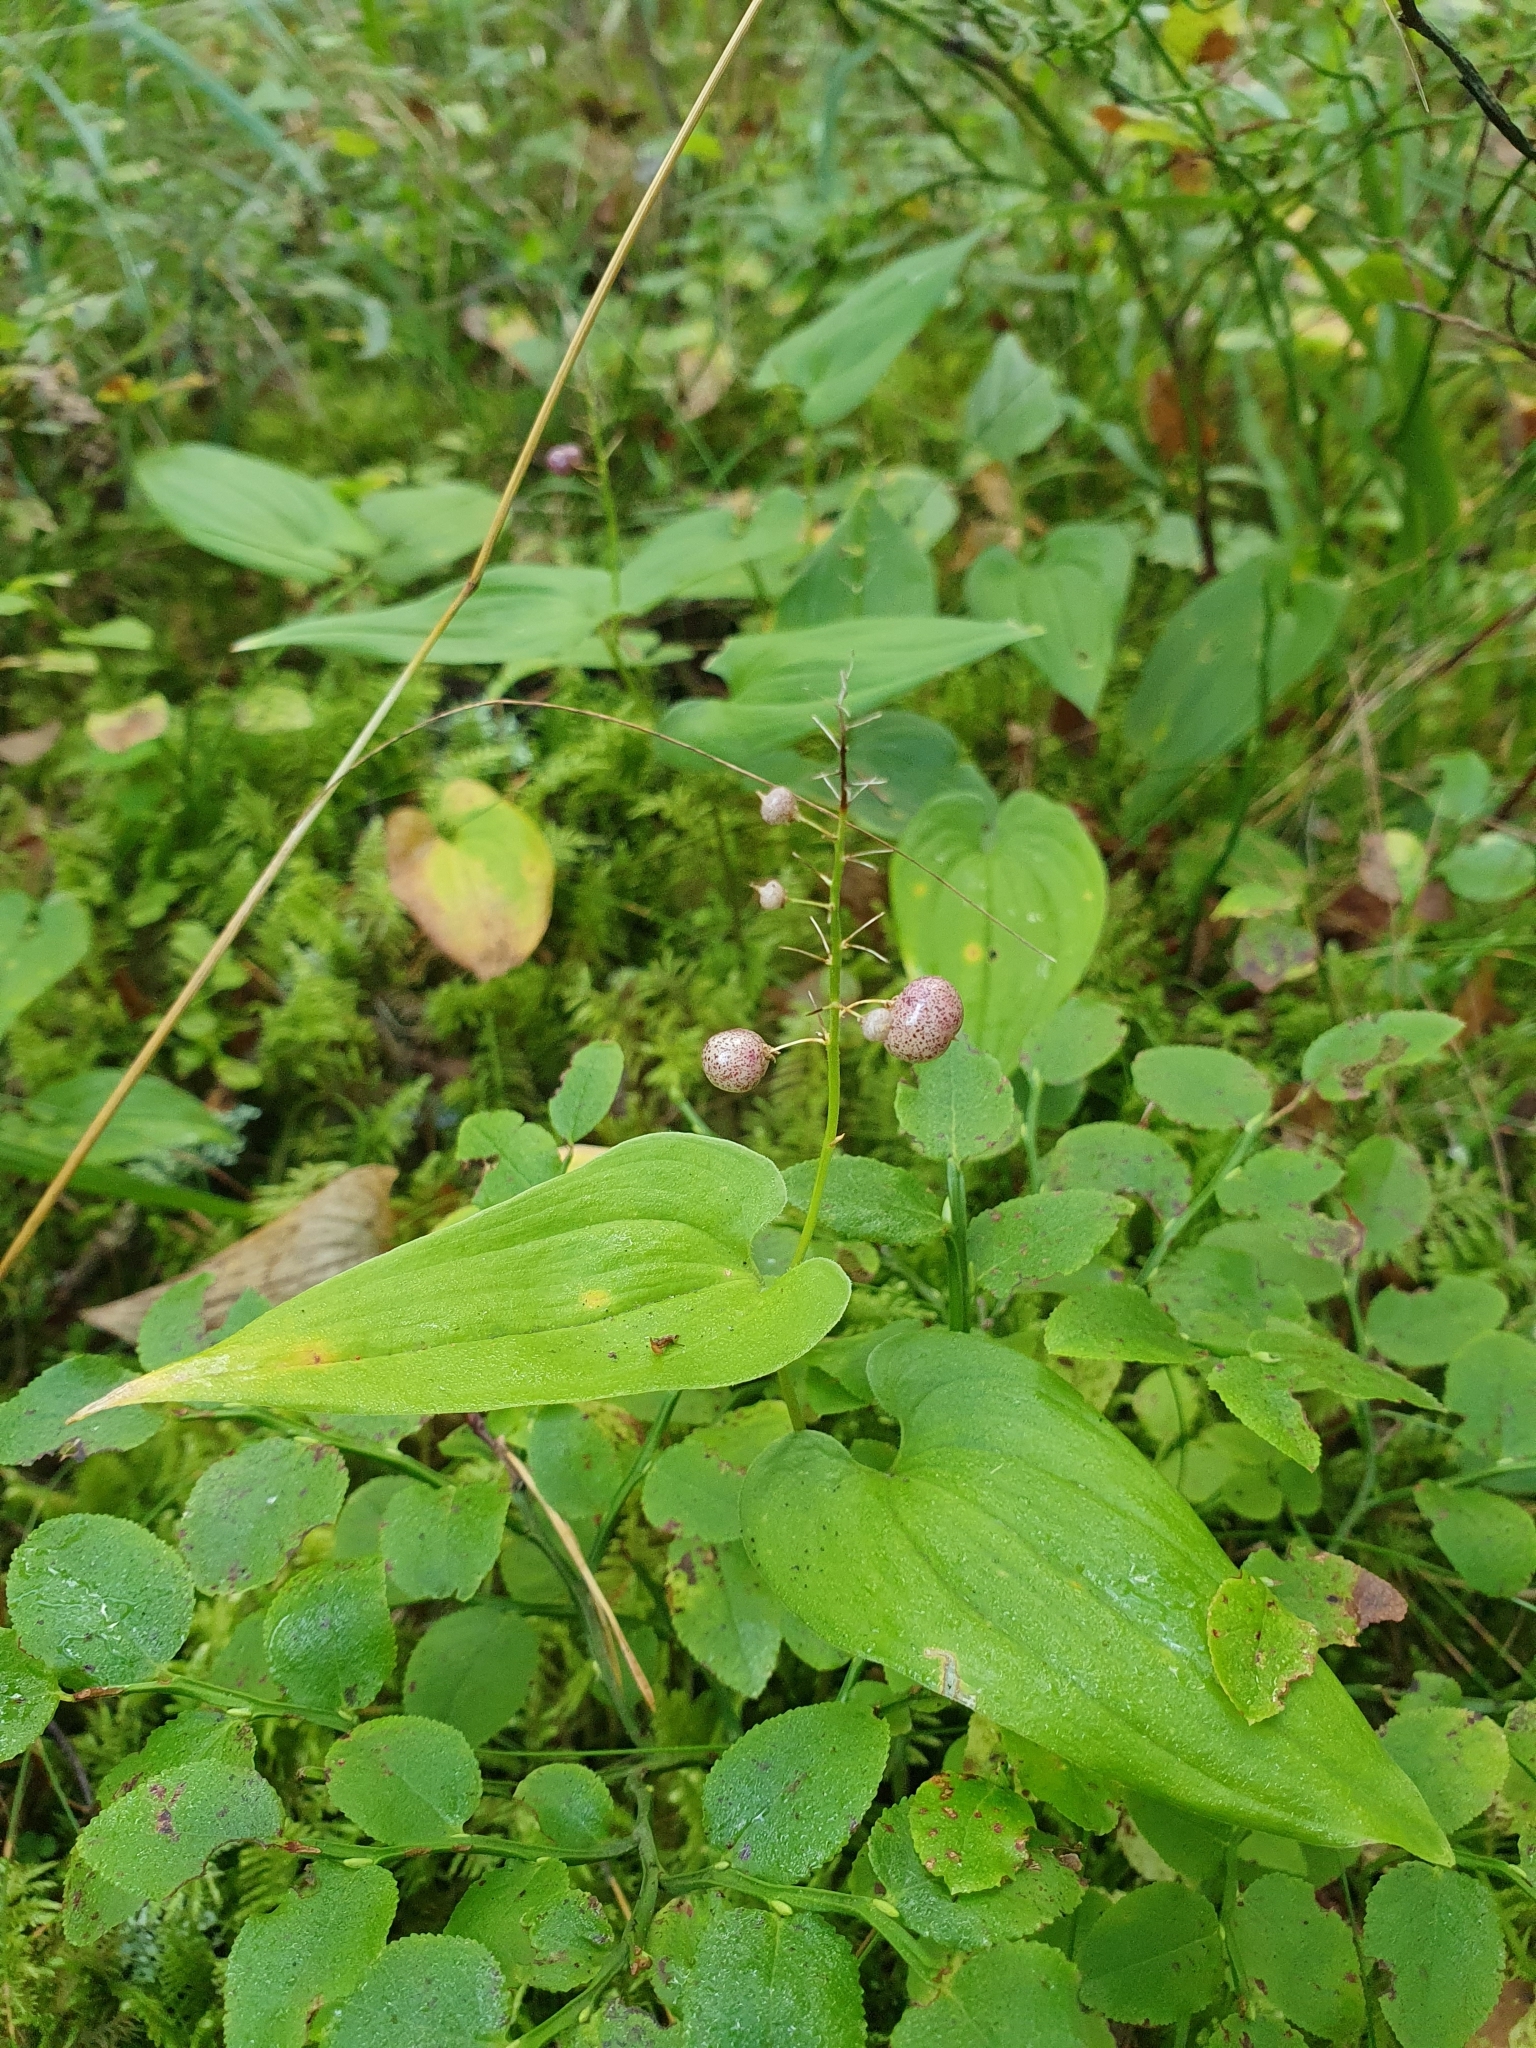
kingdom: Plantae
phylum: Tracheophyta
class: Liliopsida
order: Asparagales
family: Asparagaceae
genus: Maianthemum
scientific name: Maianthemum bifolium
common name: May lily
